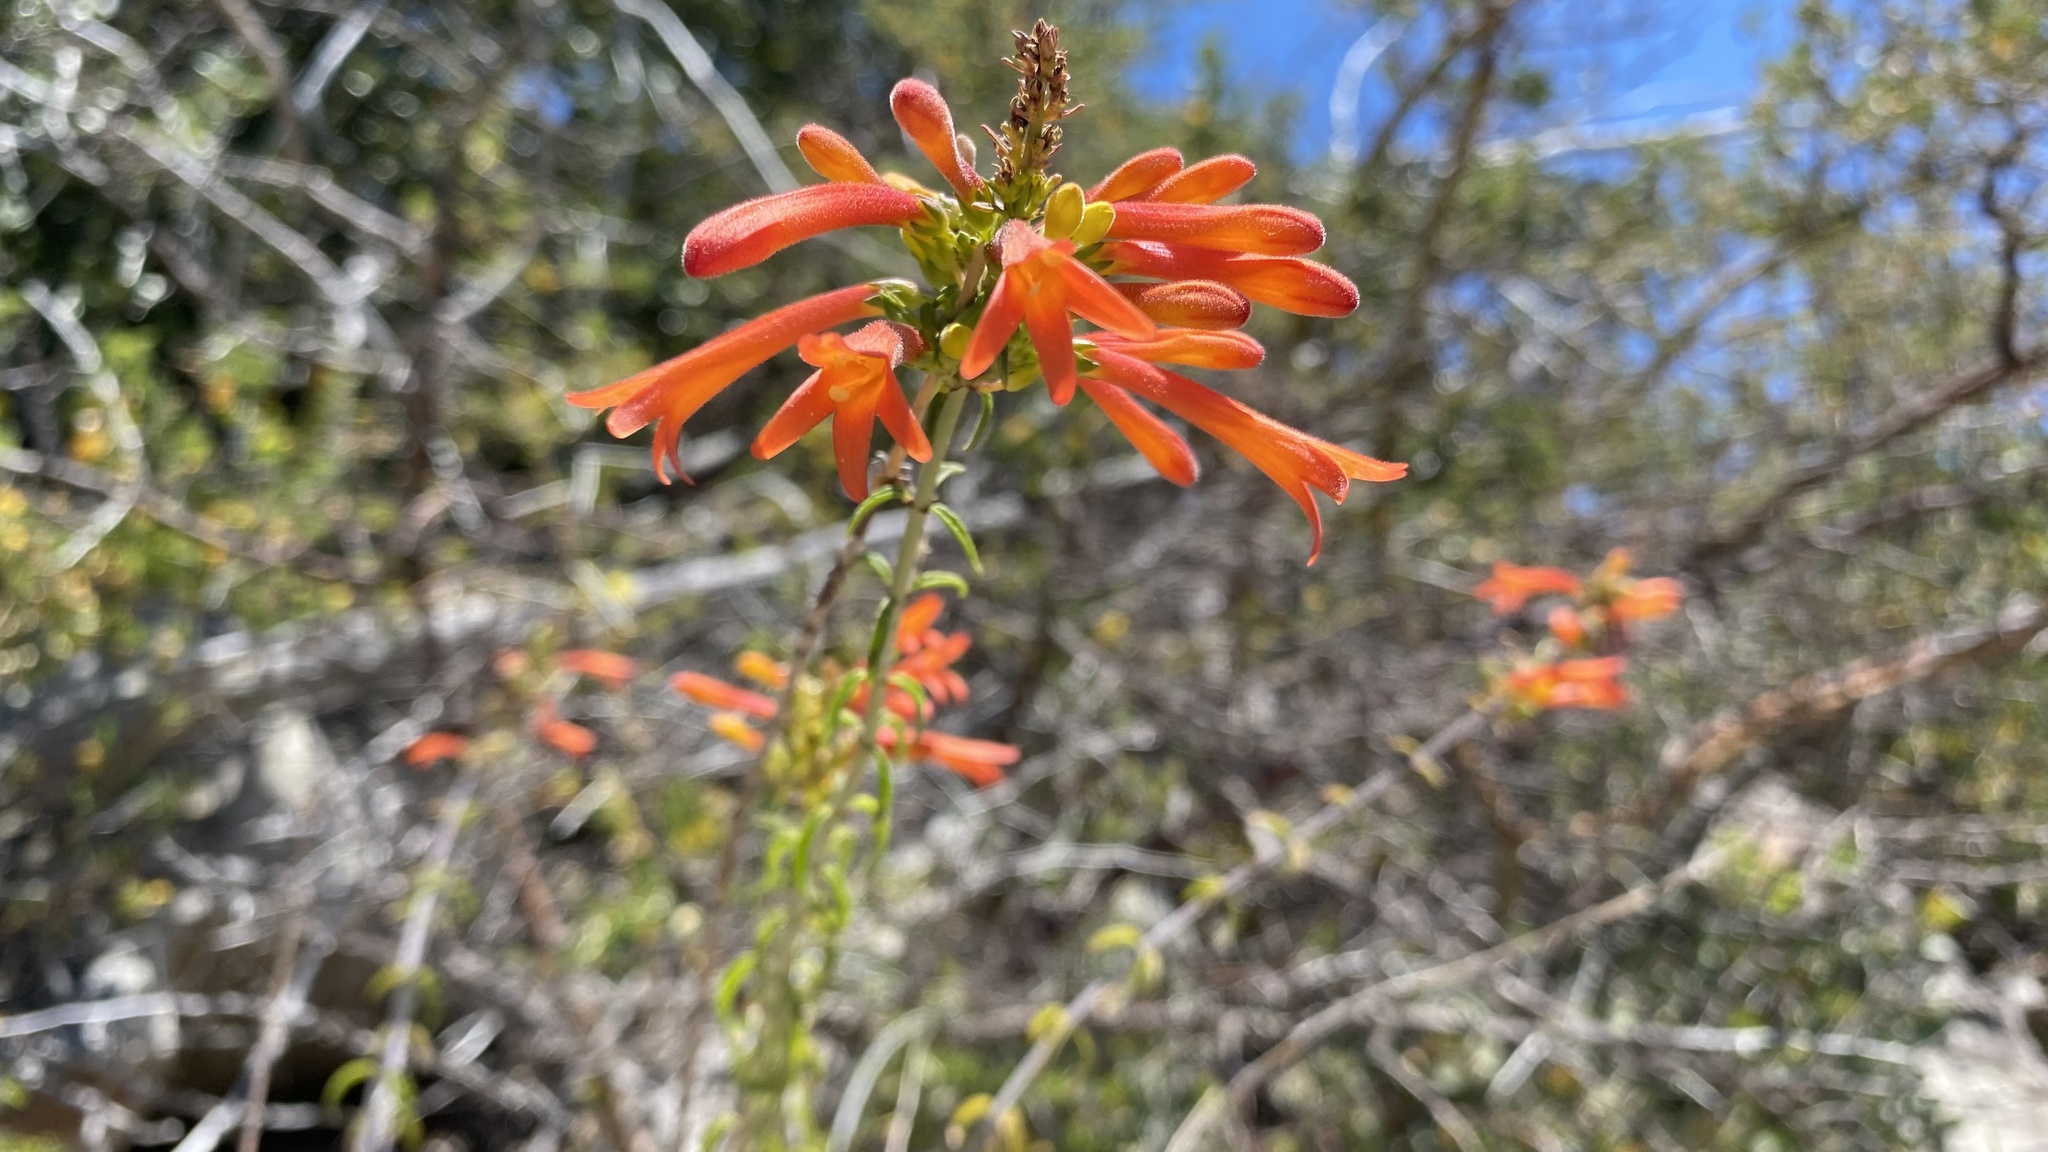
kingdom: Plantae
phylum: Tracheophyta
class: Magnoliopsida
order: Lamiales
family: Plantaginaceae
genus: Keckiella
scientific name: Keckiella ternata
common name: Scarlet keckiella
